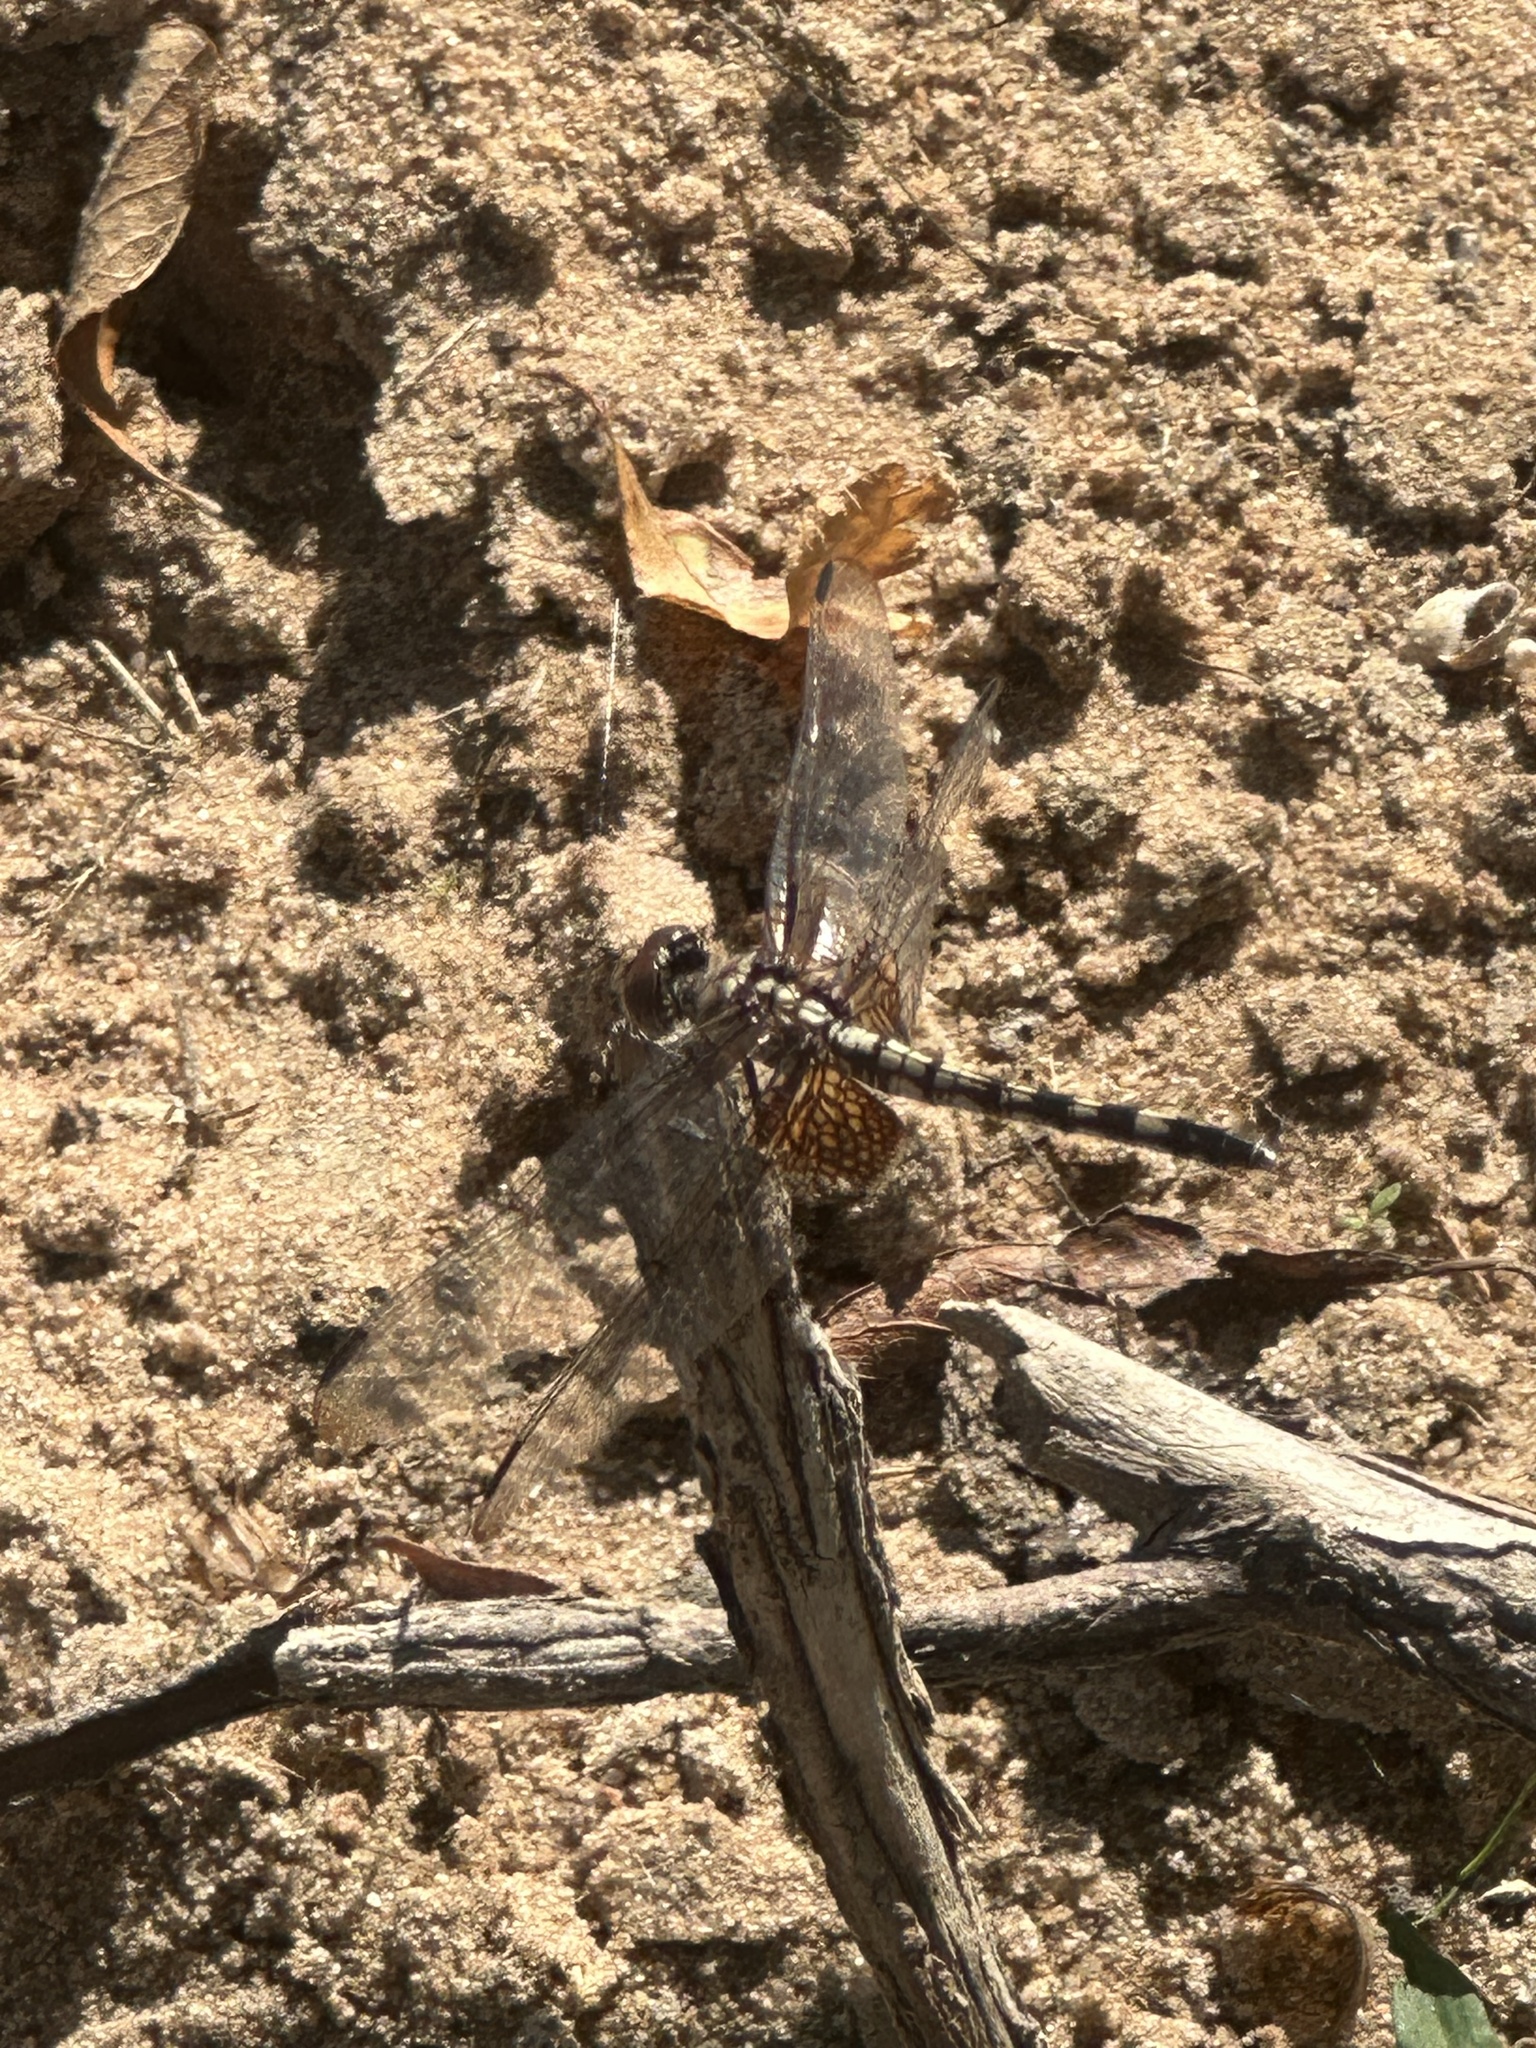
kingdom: Animalia
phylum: Arthropoda
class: Insecta
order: Odonata
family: Libellulidae
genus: Dythemis
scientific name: Dythemis fugax
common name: Checkered setwing
